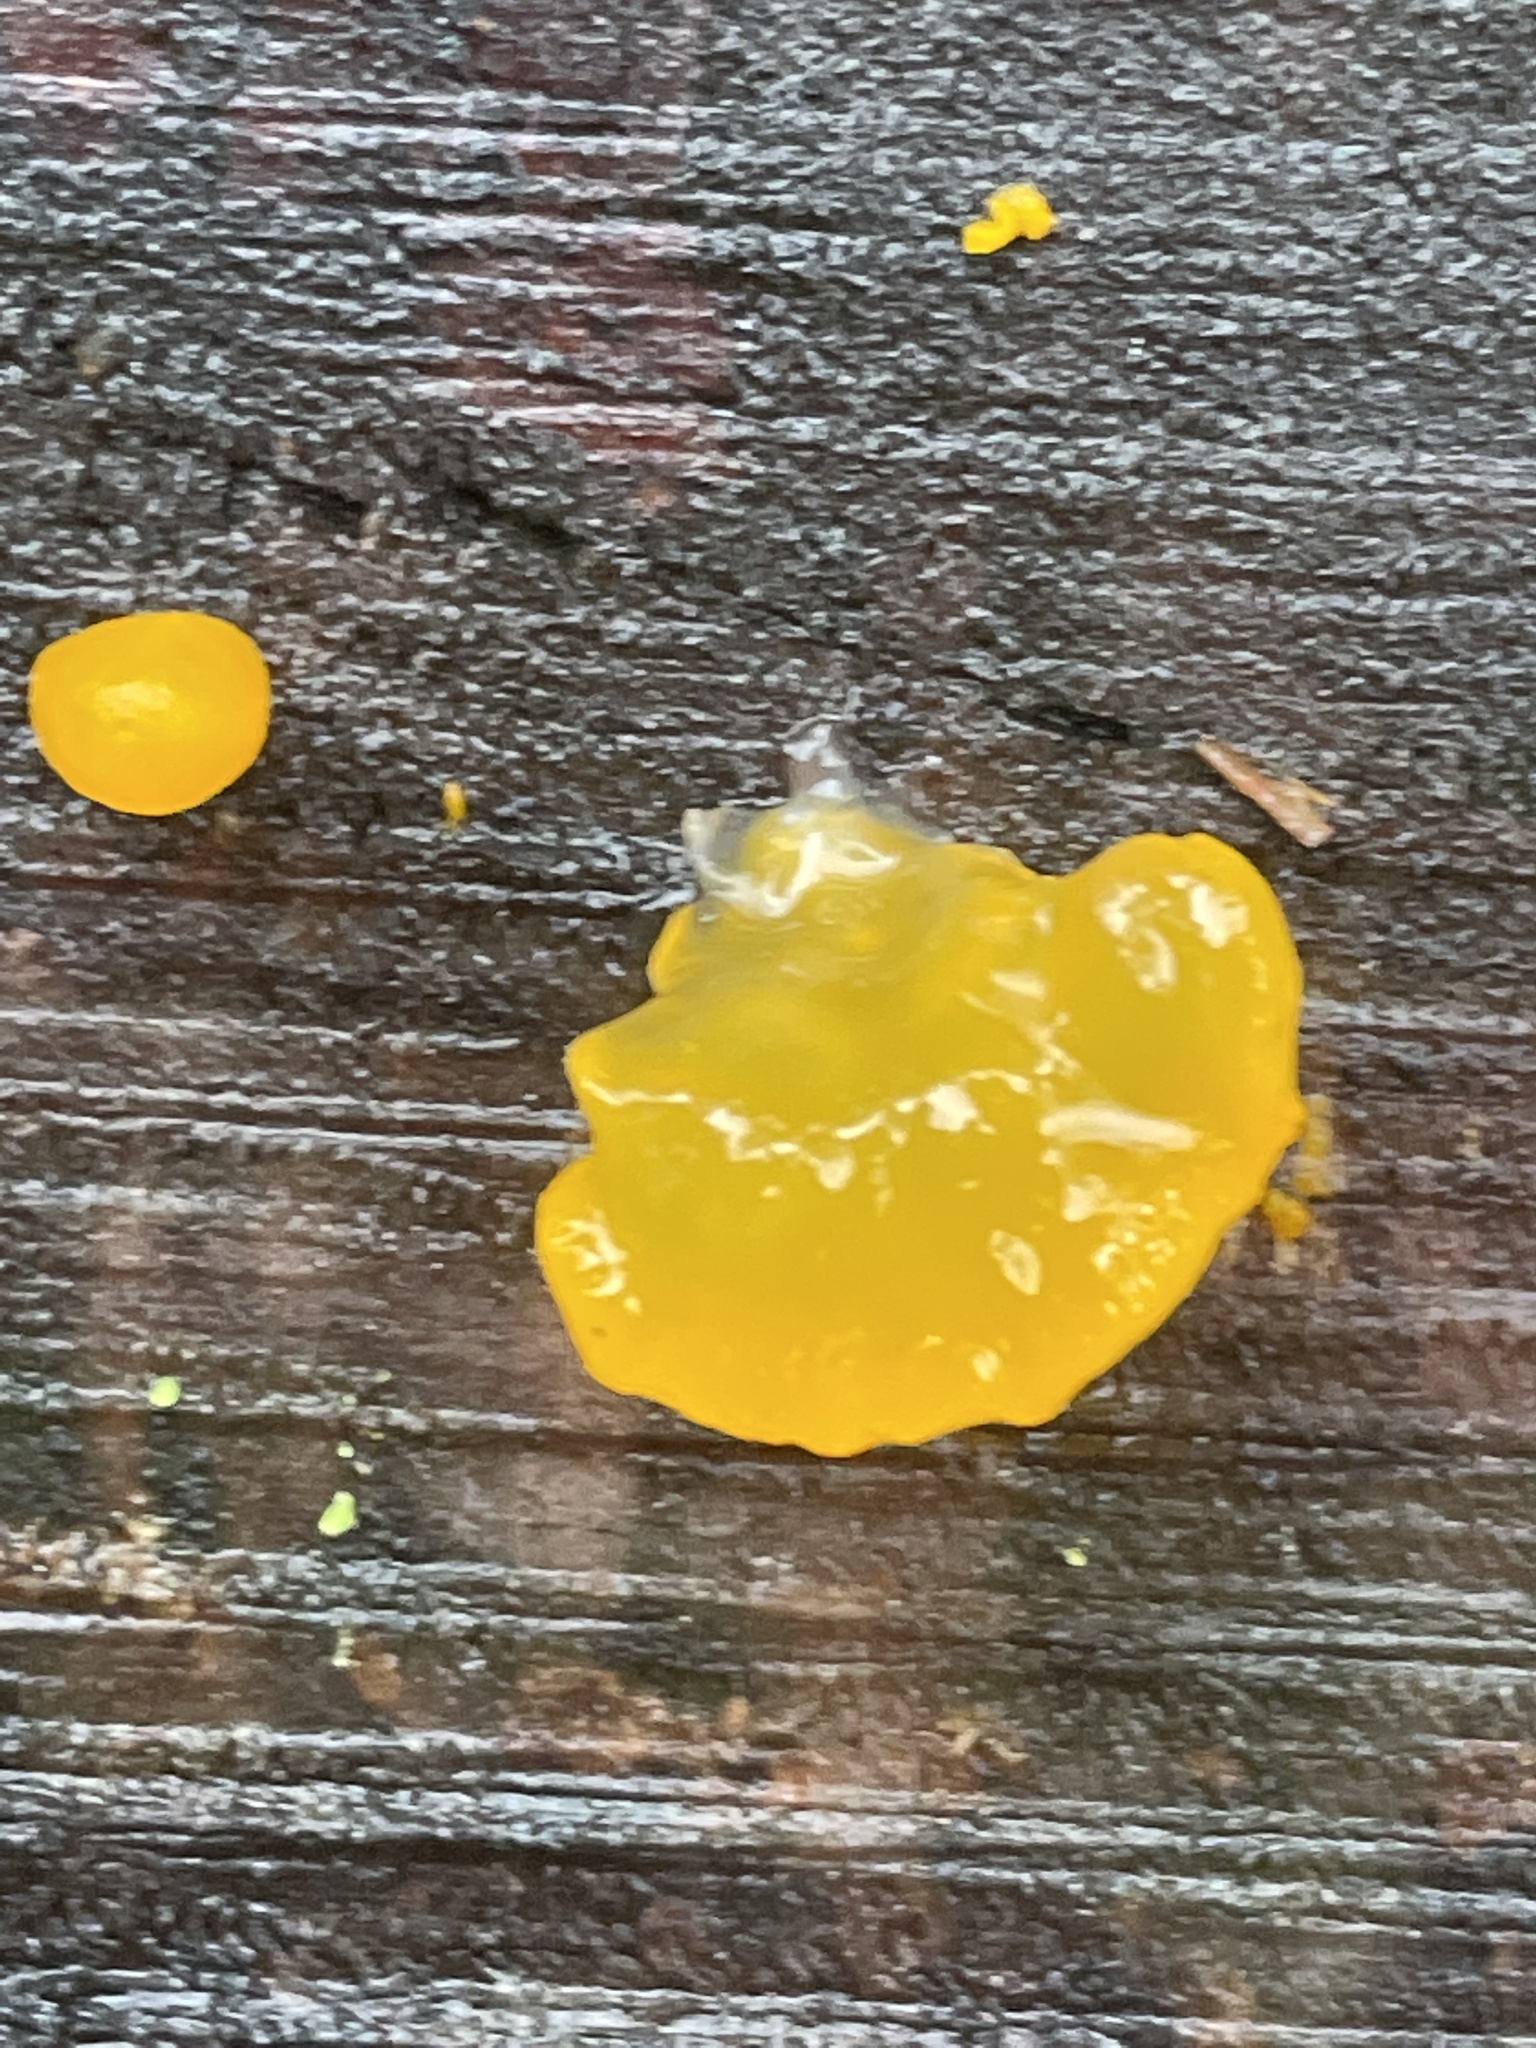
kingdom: Fungi
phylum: Basidiomycota
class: Dacrymycetes
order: Dacrymycetales
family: Dacrymycetaceae
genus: Dacrymyces
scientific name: Dacrymyces chrysospermus
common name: Orange jelly spot
